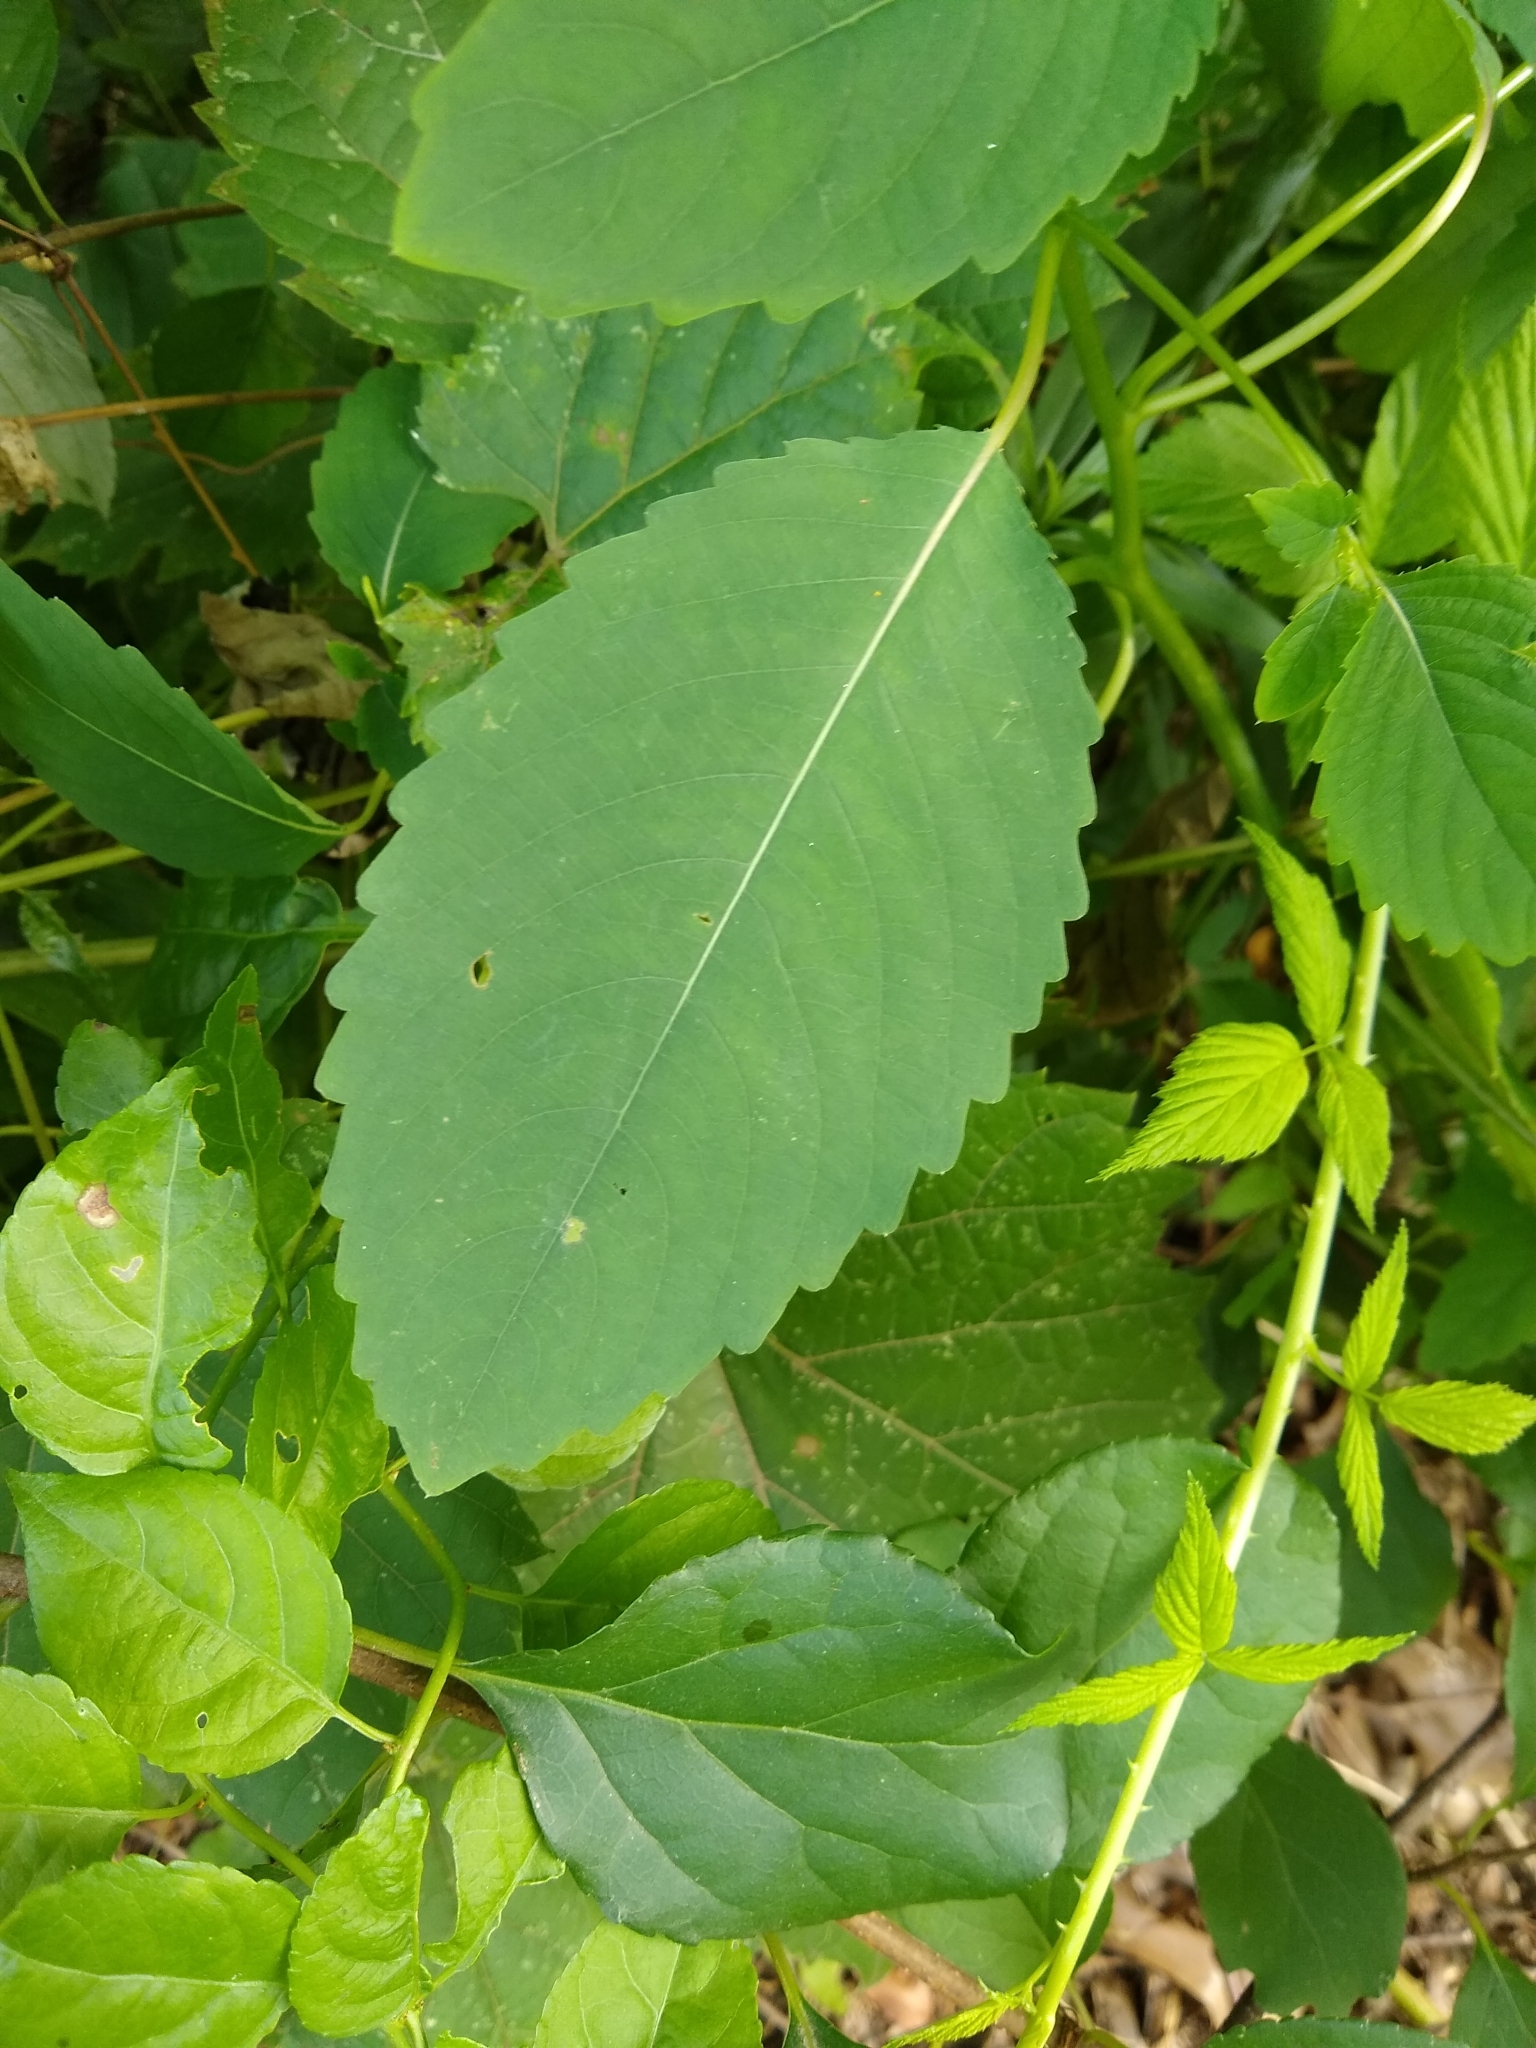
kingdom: Plantae
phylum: Tracheophyta
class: Magnoliopsida
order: Ericales
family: Balsaminaceae
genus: Impatiens
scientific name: Impatiens pallida
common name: Pale snapweed
